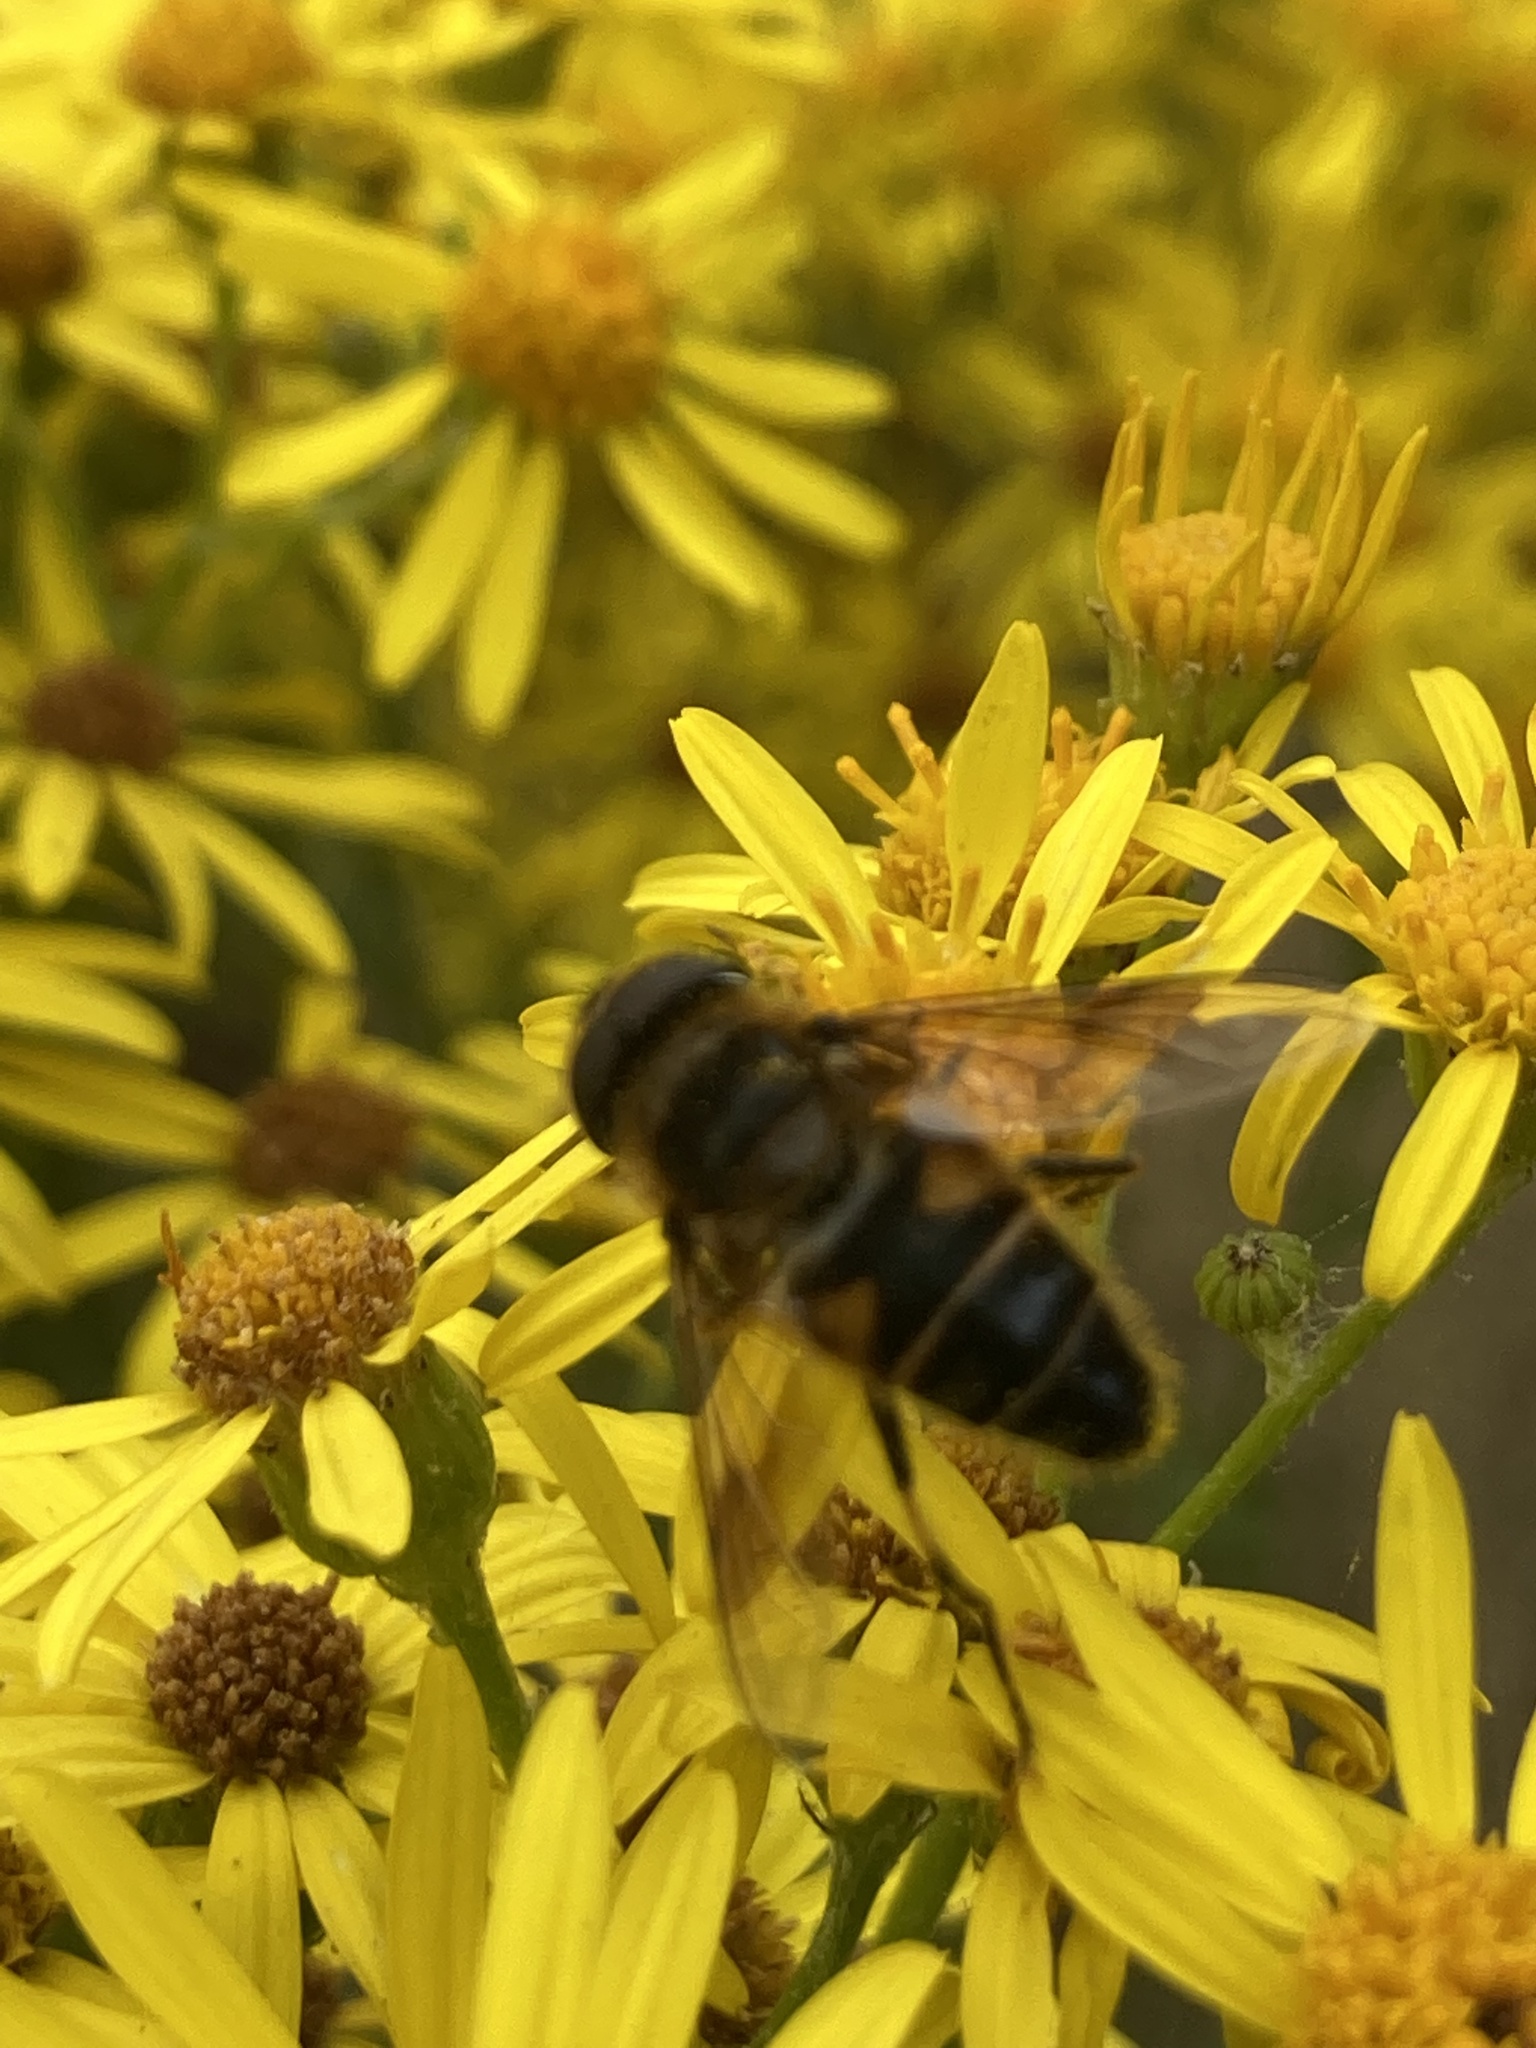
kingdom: Animalia
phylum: Arthropoda
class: Insecta
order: Diptera
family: Syrphidae
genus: Eristalis
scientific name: Eristalis pertinax
